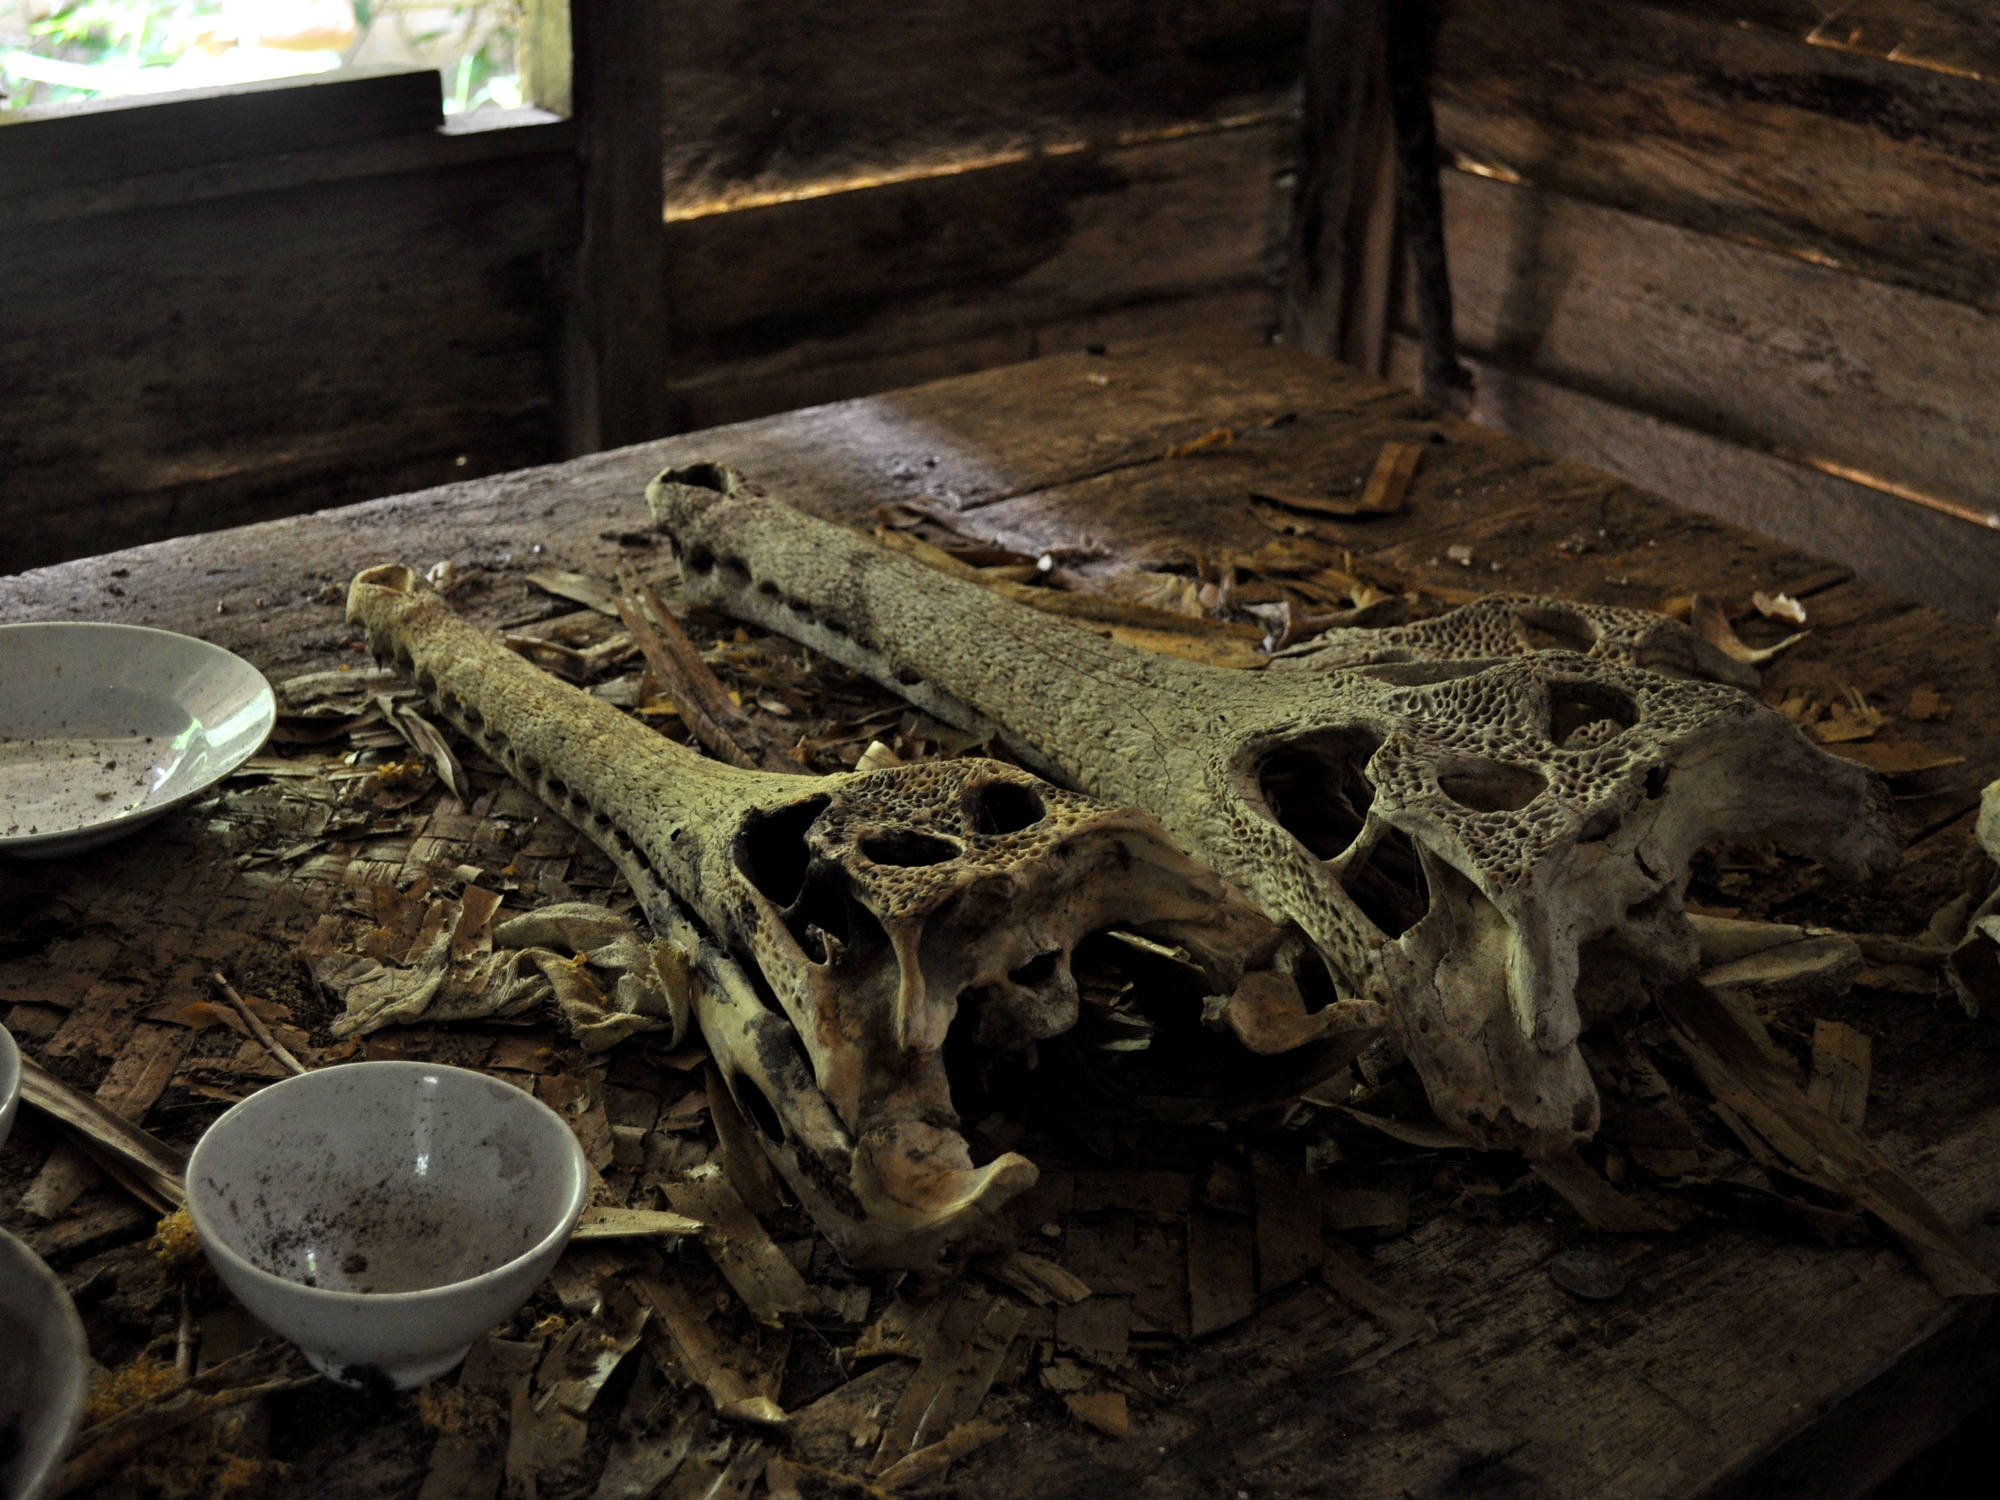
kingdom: Animalia
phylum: Chordata
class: Crocodylia
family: Crocodylidae
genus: Tomistoma
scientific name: Tomistoma schlegelii
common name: False gharial
